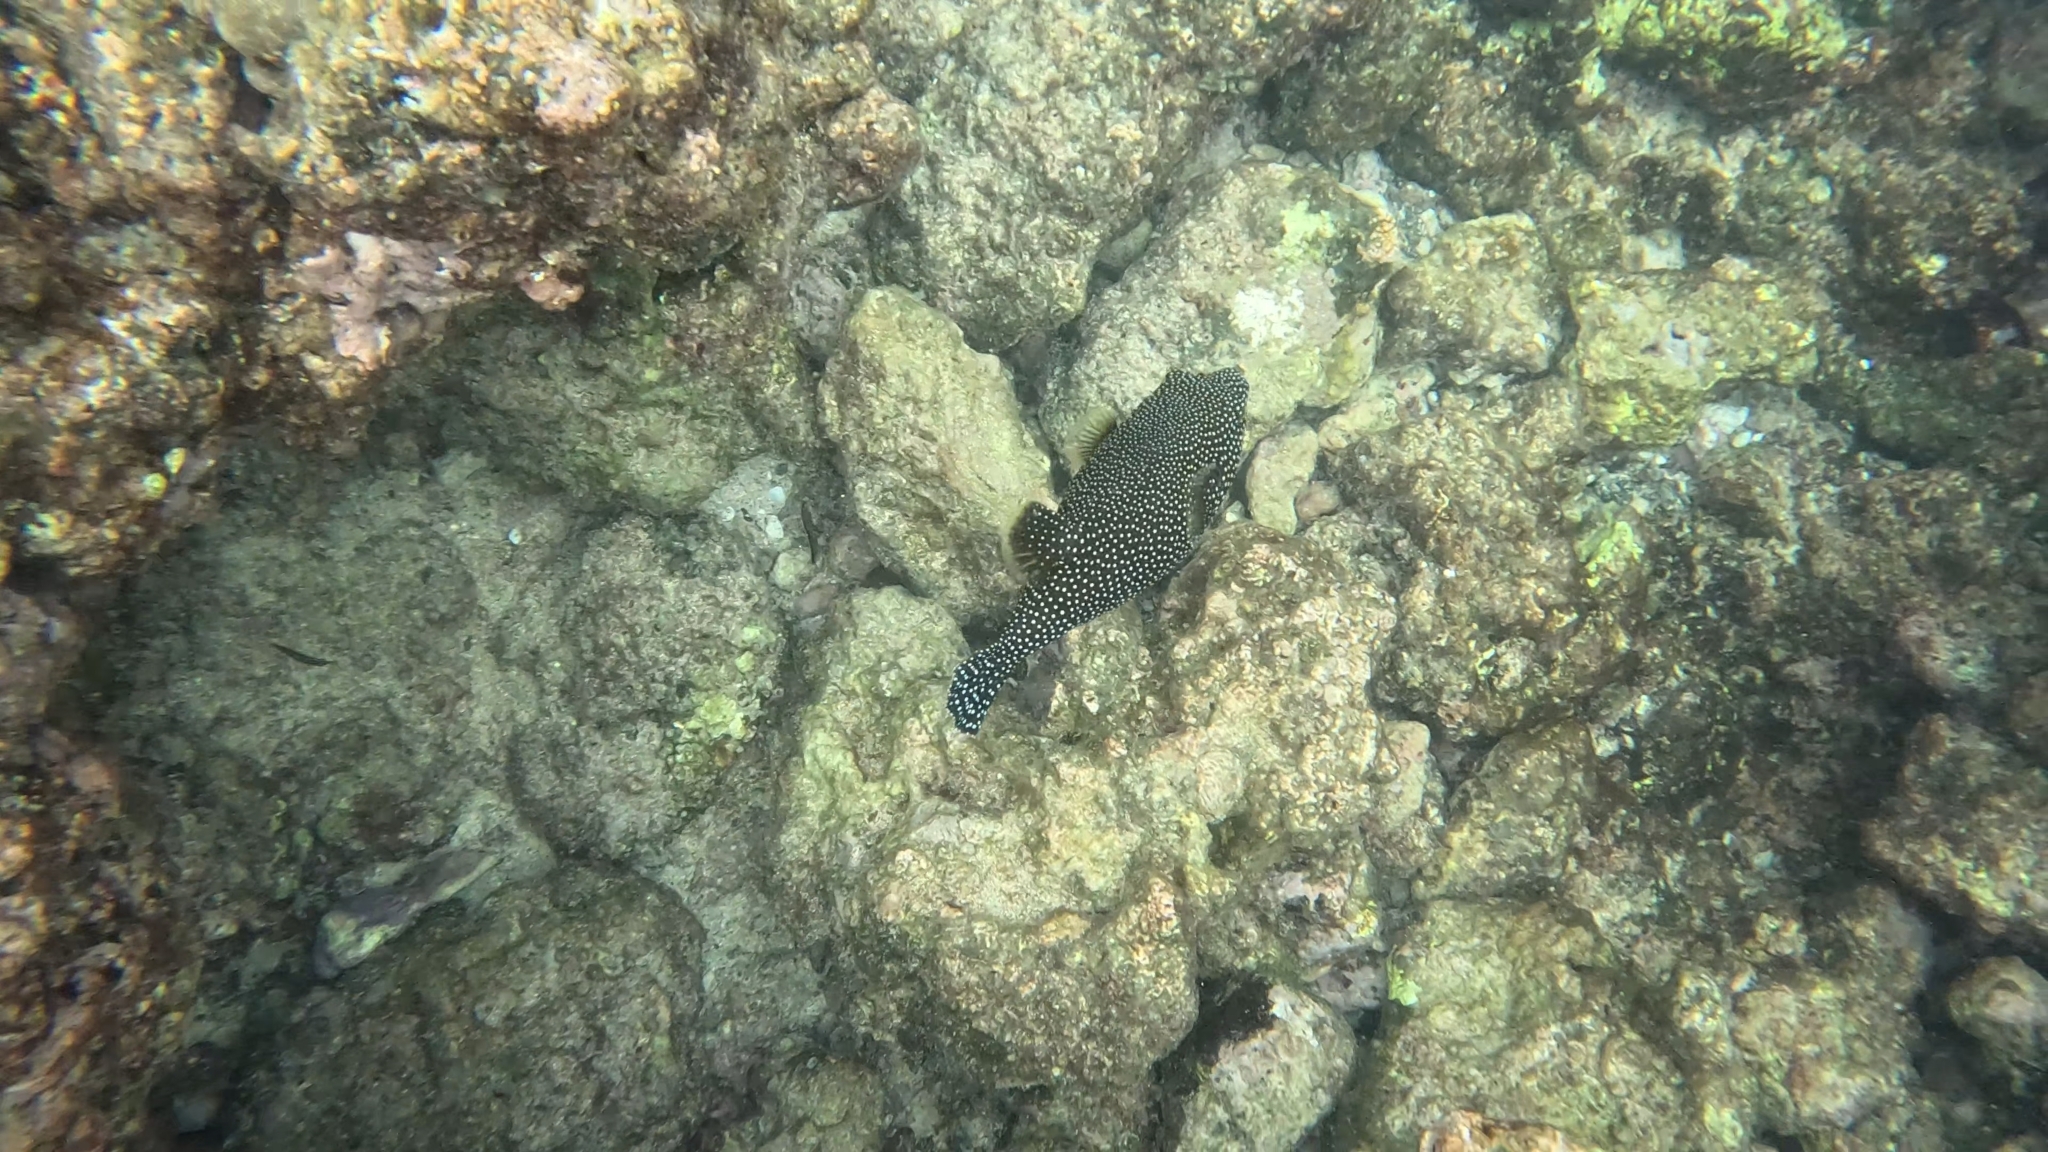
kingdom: Animalia
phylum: Chordata
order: Tetraodontiformes
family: Tetraodontidae
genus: Arothron
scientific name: Arothron meleagris
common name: Guinea-fowl pufferfish
